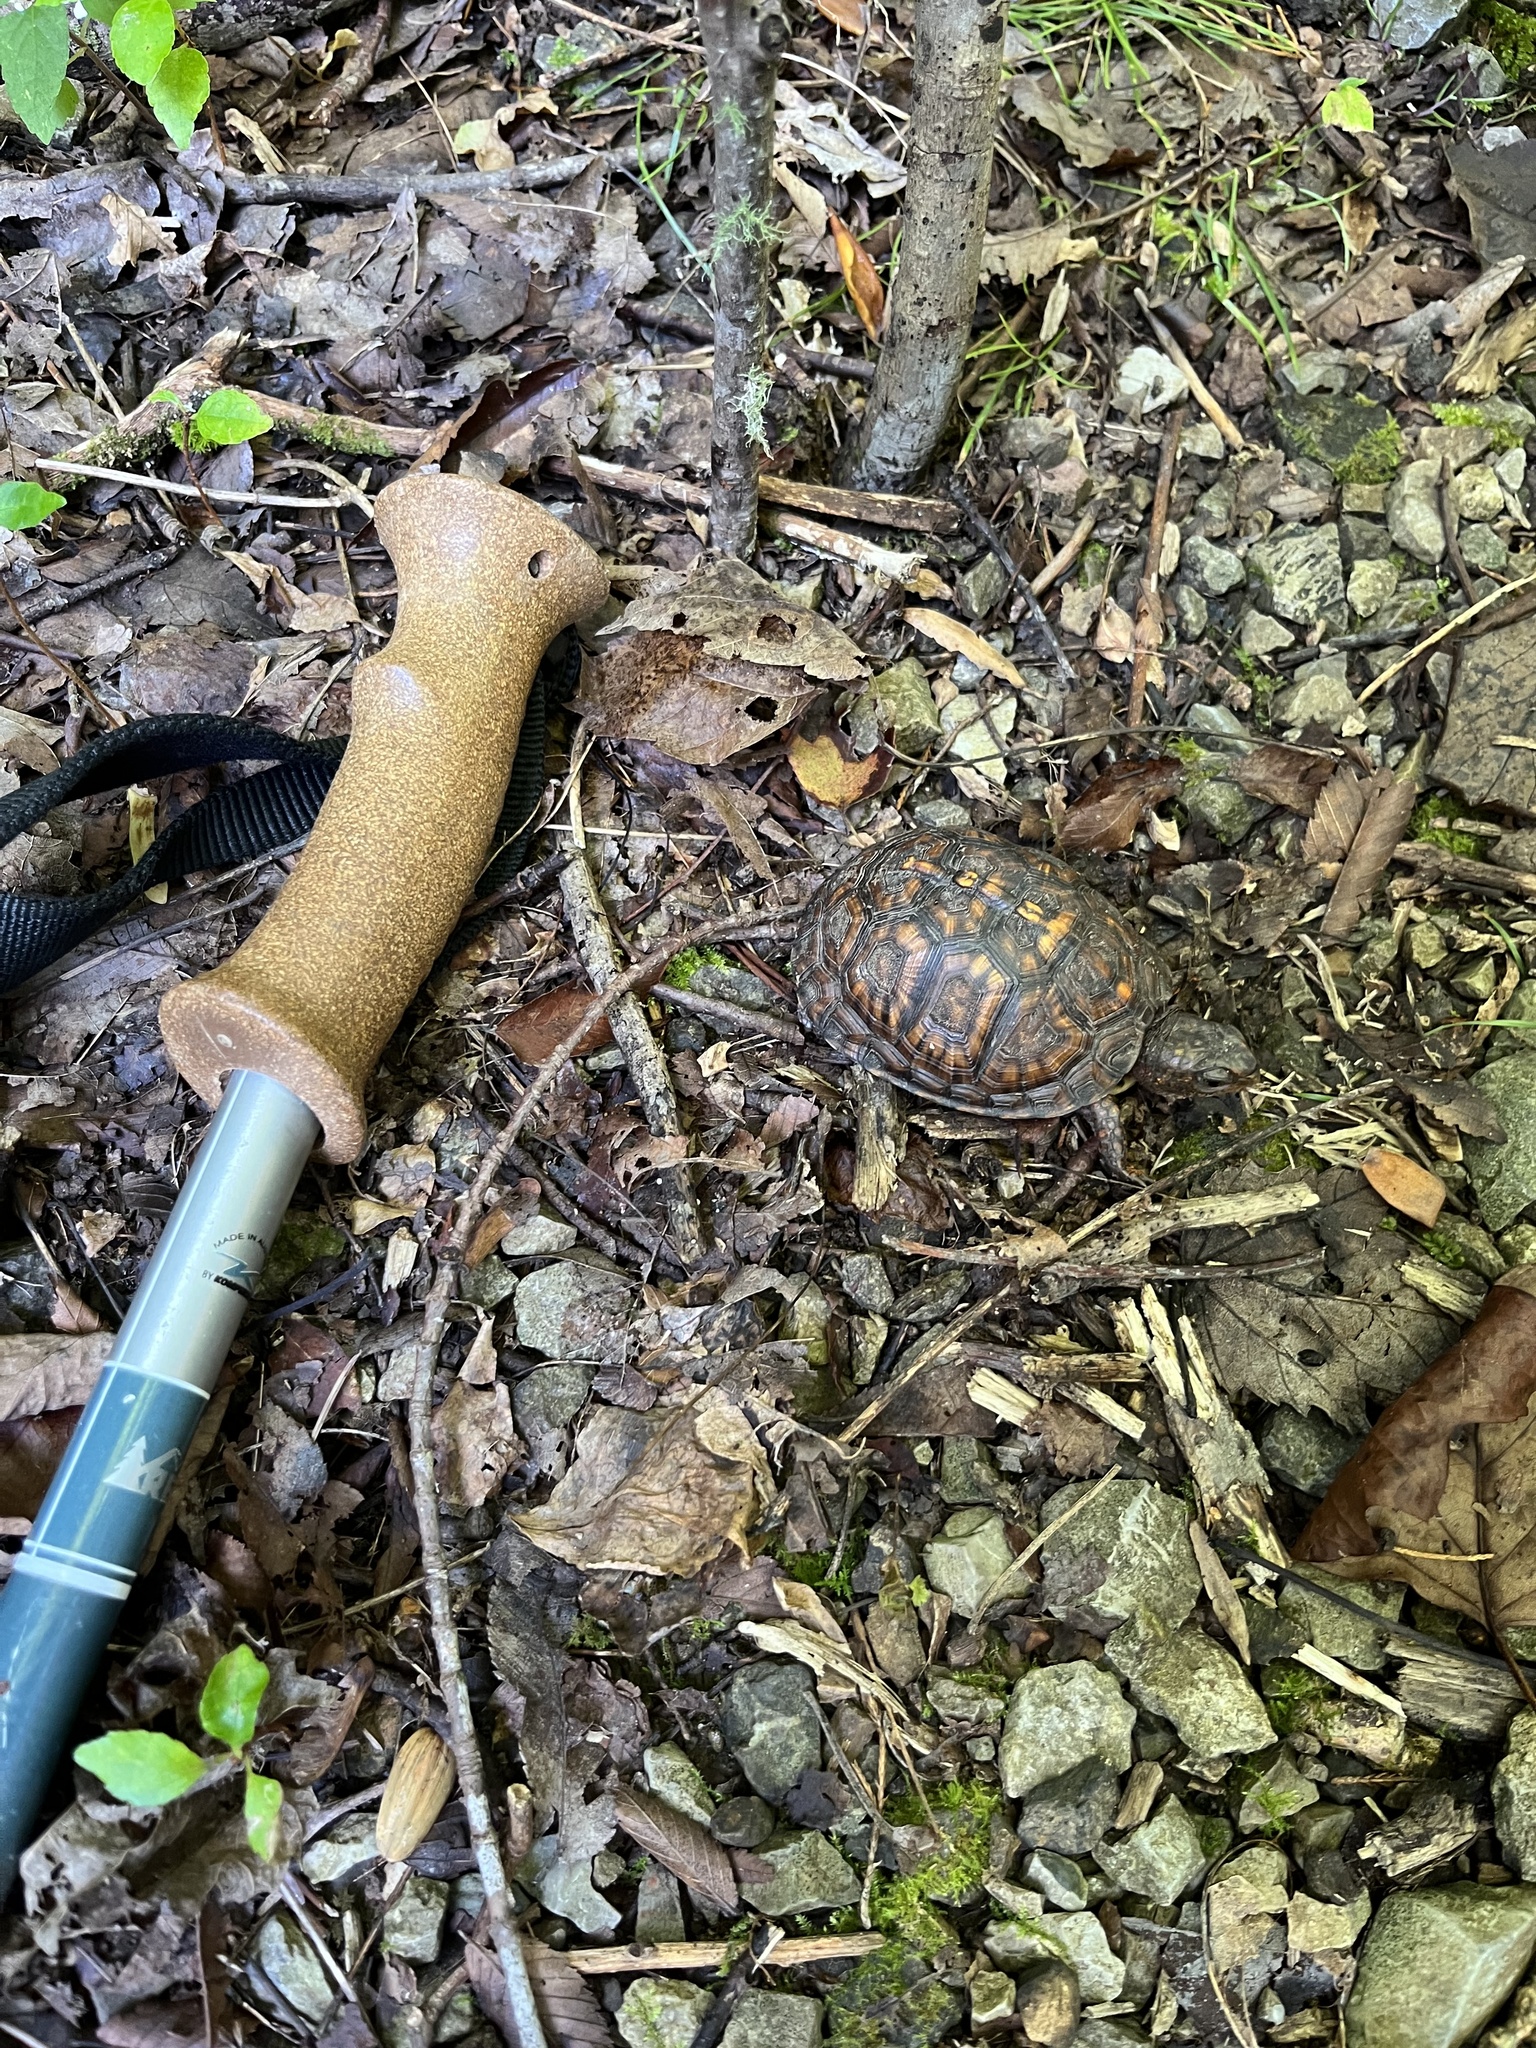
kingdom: Animalia
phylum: Chordata
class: Testudines
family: Emydidae
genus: Terrapene
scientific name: Terrapene carolina
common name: Common box turtle
